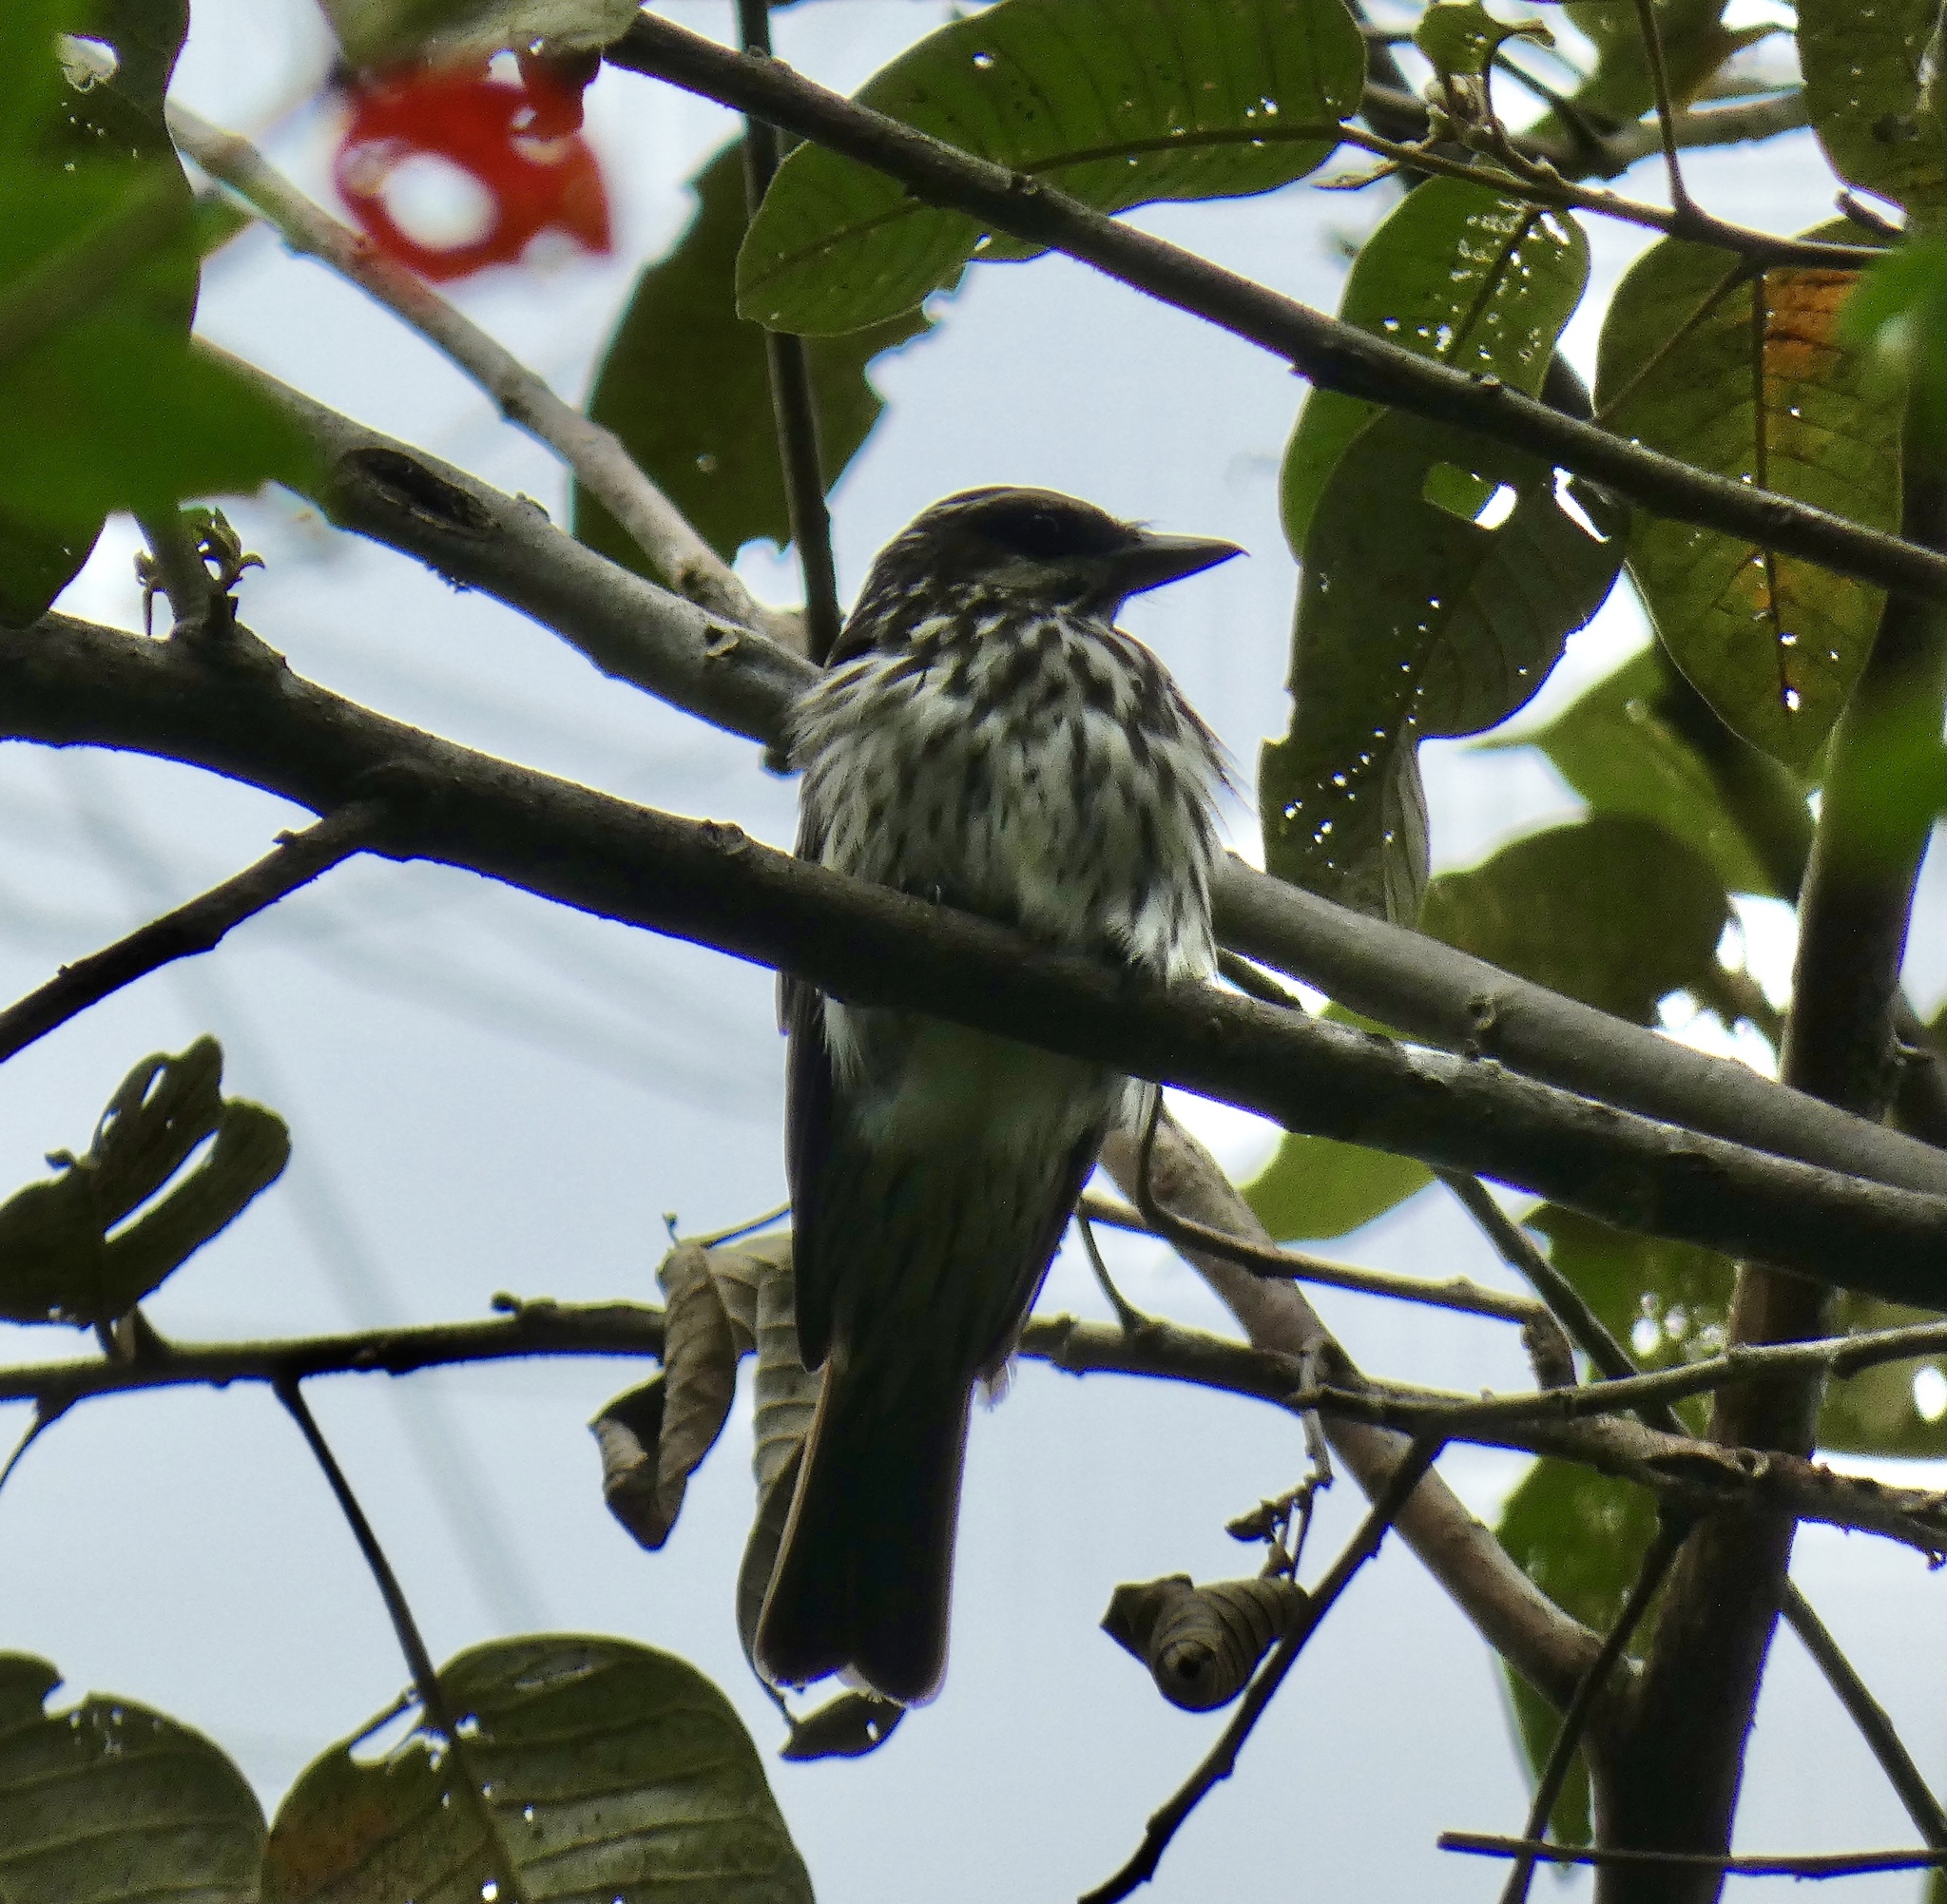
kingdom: Animalia
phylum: Chordata
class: Aves
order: Passeriformes
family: Tyrannidae
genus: Myiodynastes
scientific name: Myiodynastes maculatus
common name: Streaked flycatcher
